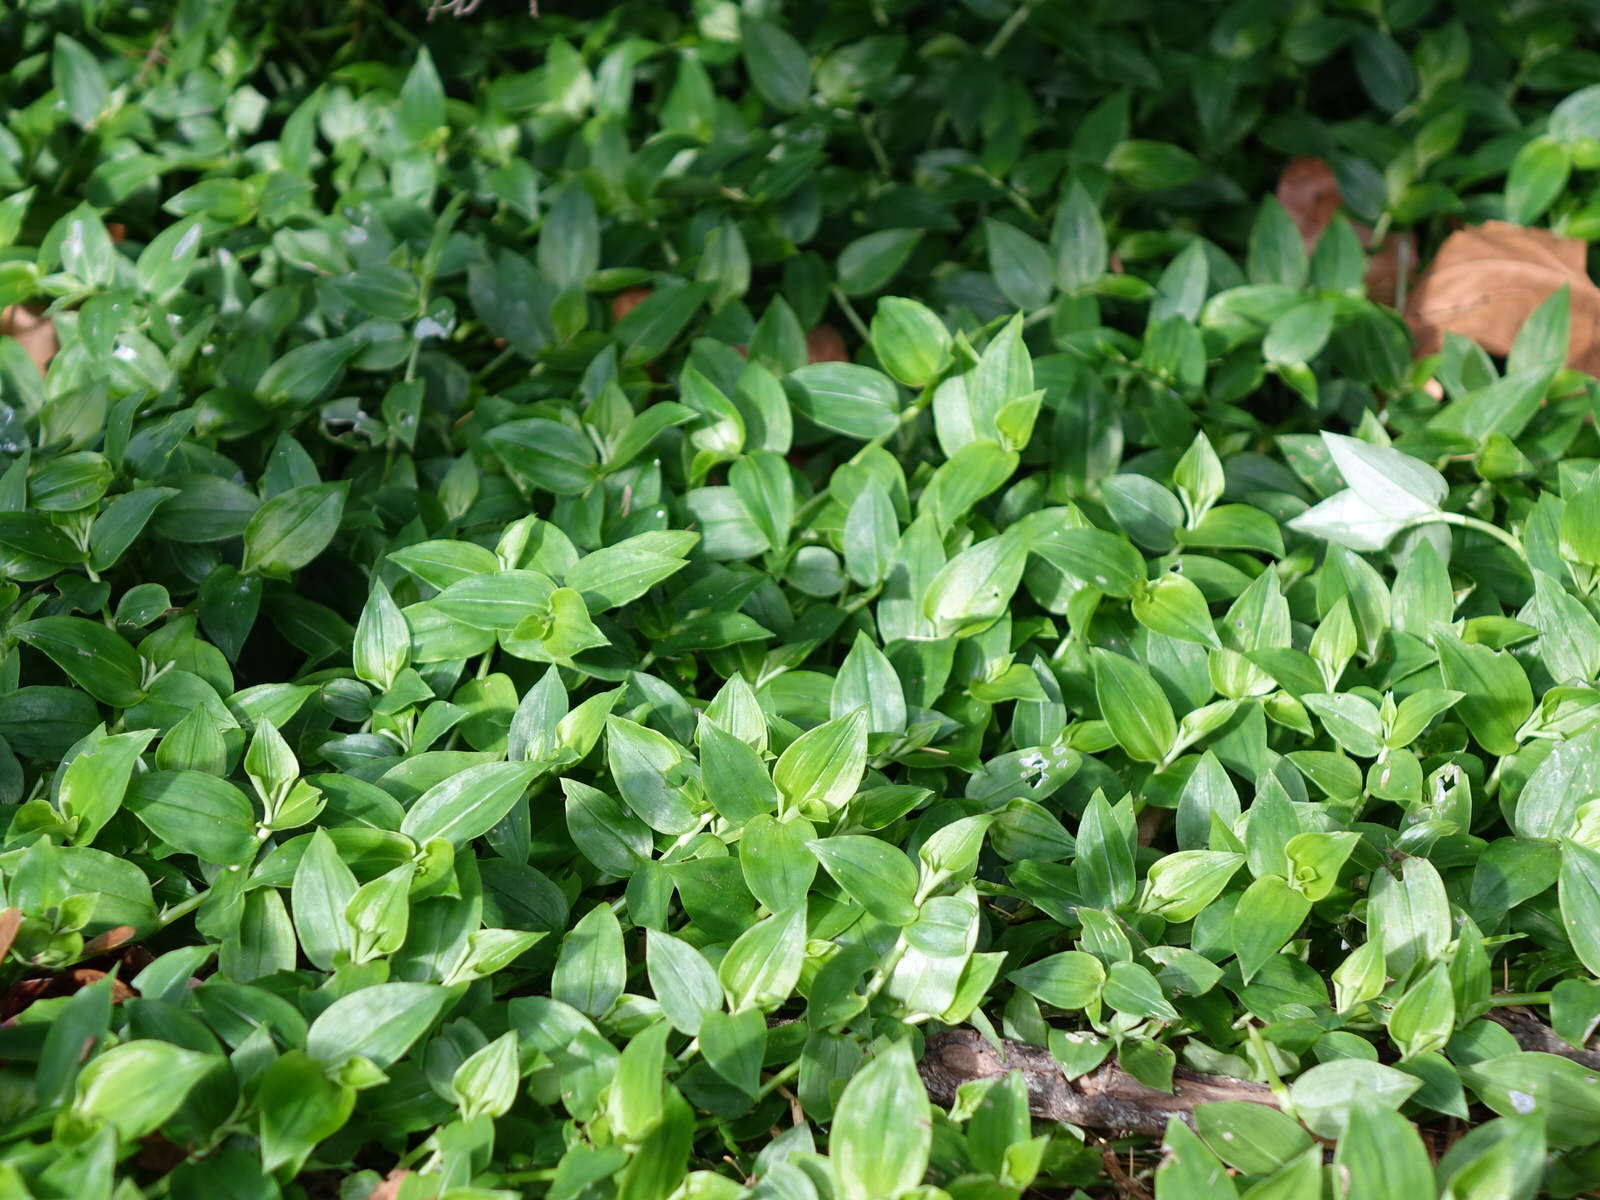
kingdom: Plantae
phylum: Tracheophyta
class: Liliopsida
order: Commelinales
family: Commelinaceae
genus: Tradescantia
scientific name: Tradescantia fluminensis
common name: Wandering-jew
